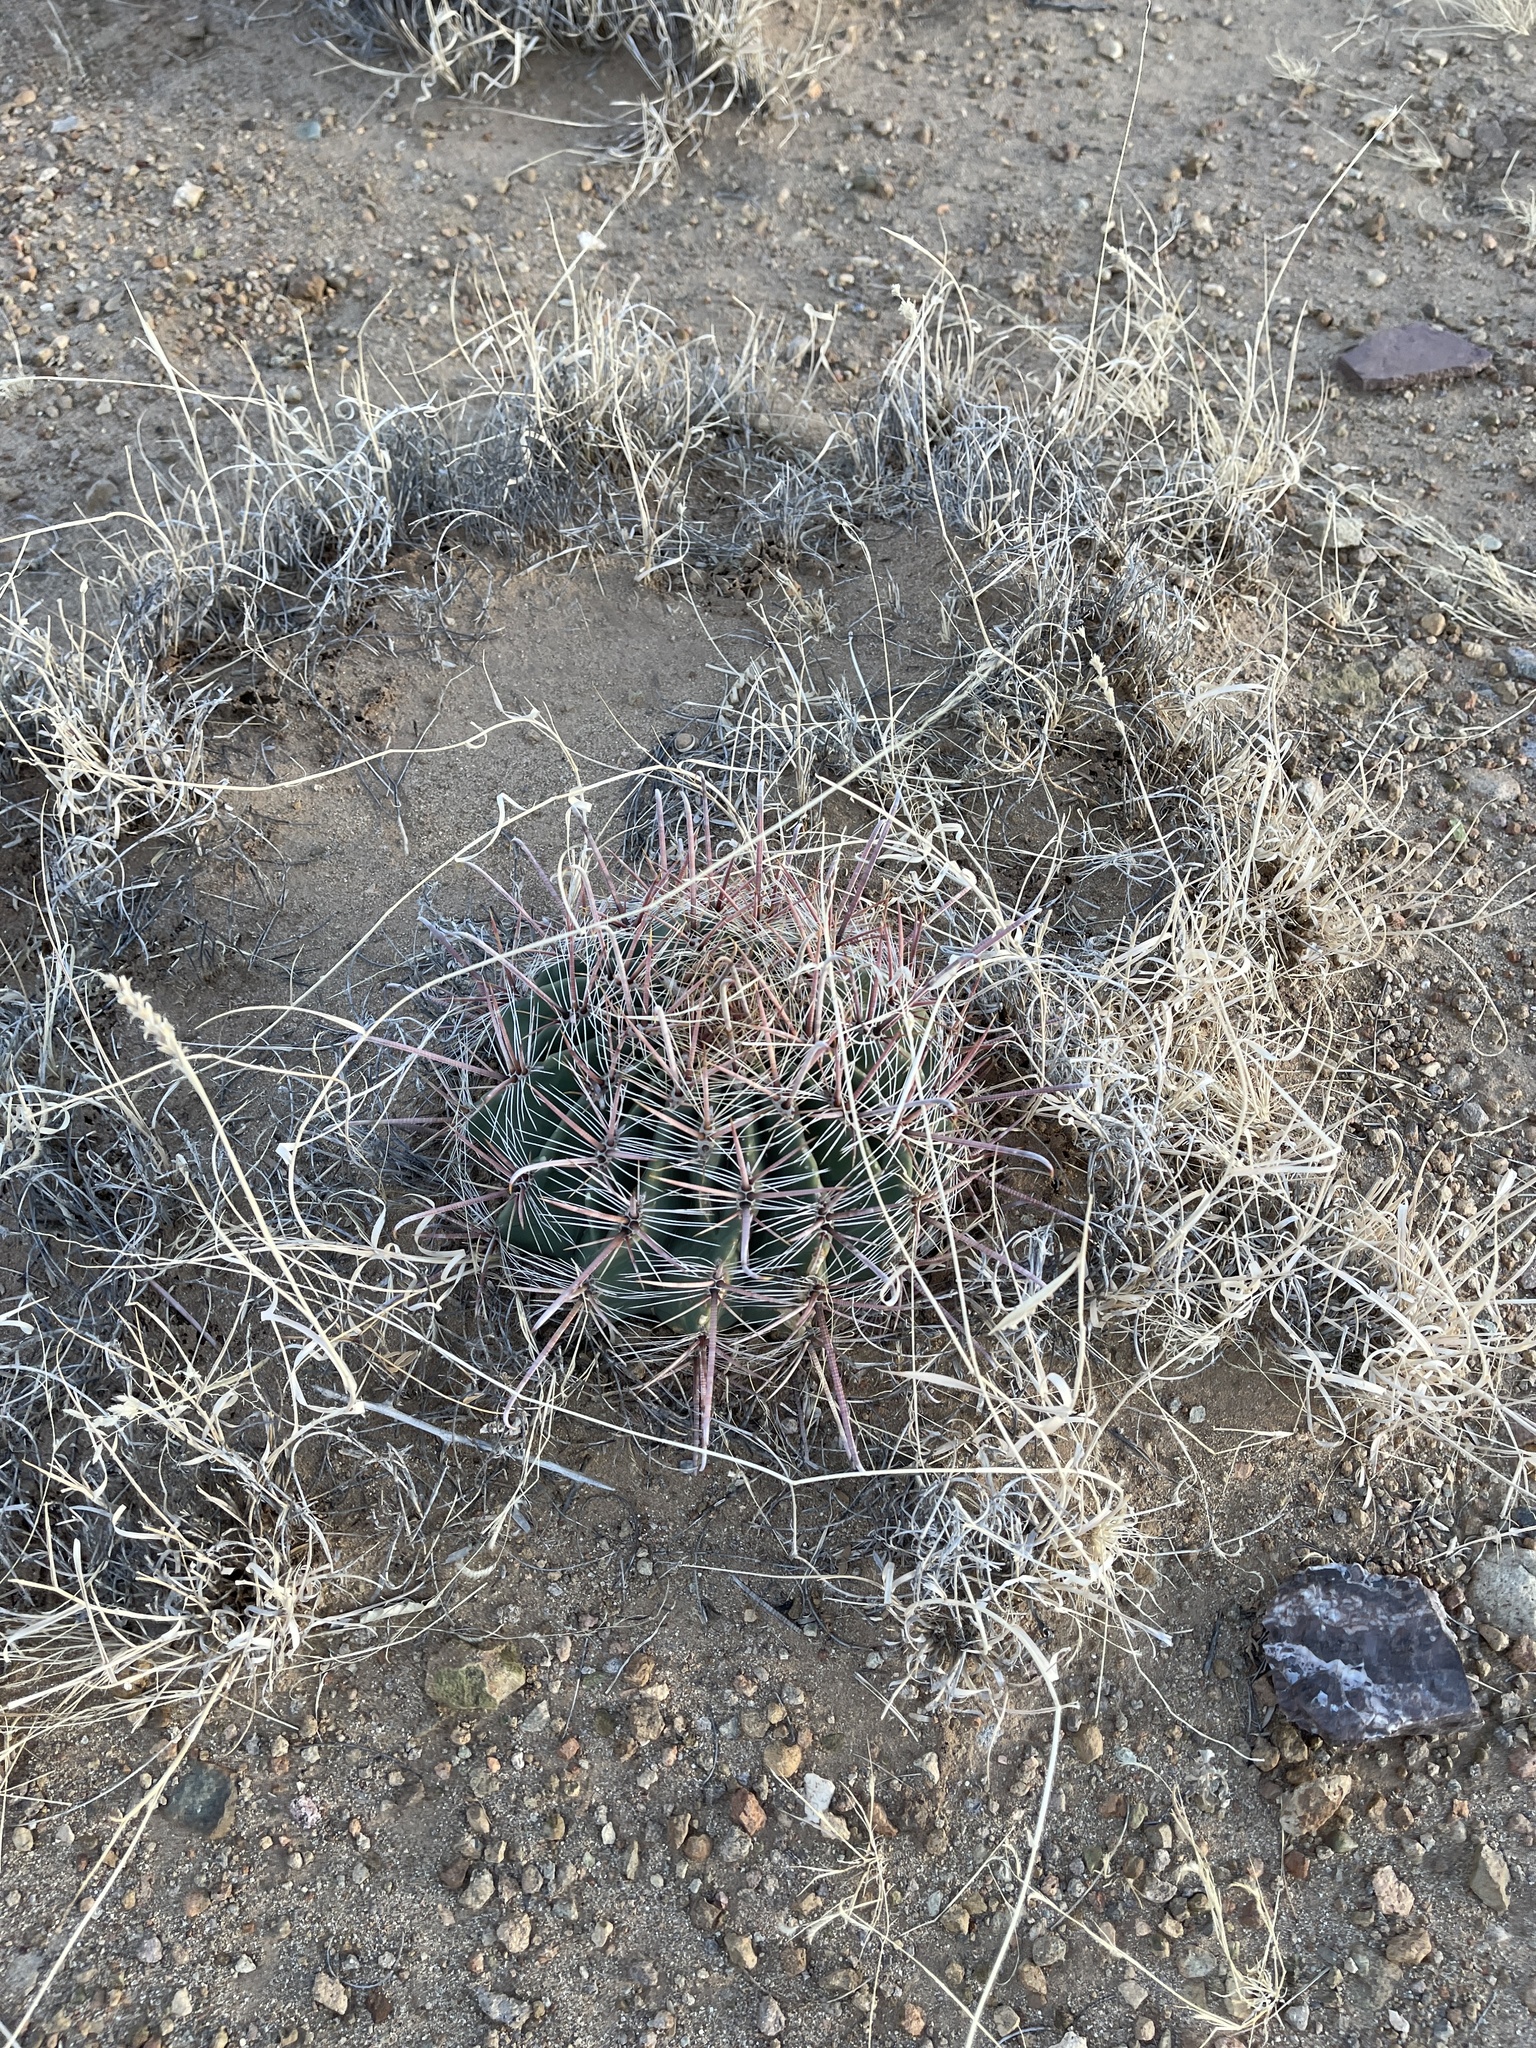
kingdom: Plantae
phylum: Tracheophyta
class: Magnoliopsida
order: Caryophyllales
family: Cactaceae
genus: Ferocactus
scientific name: Ferocactus wislizeni
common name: Candy barrel cactus
